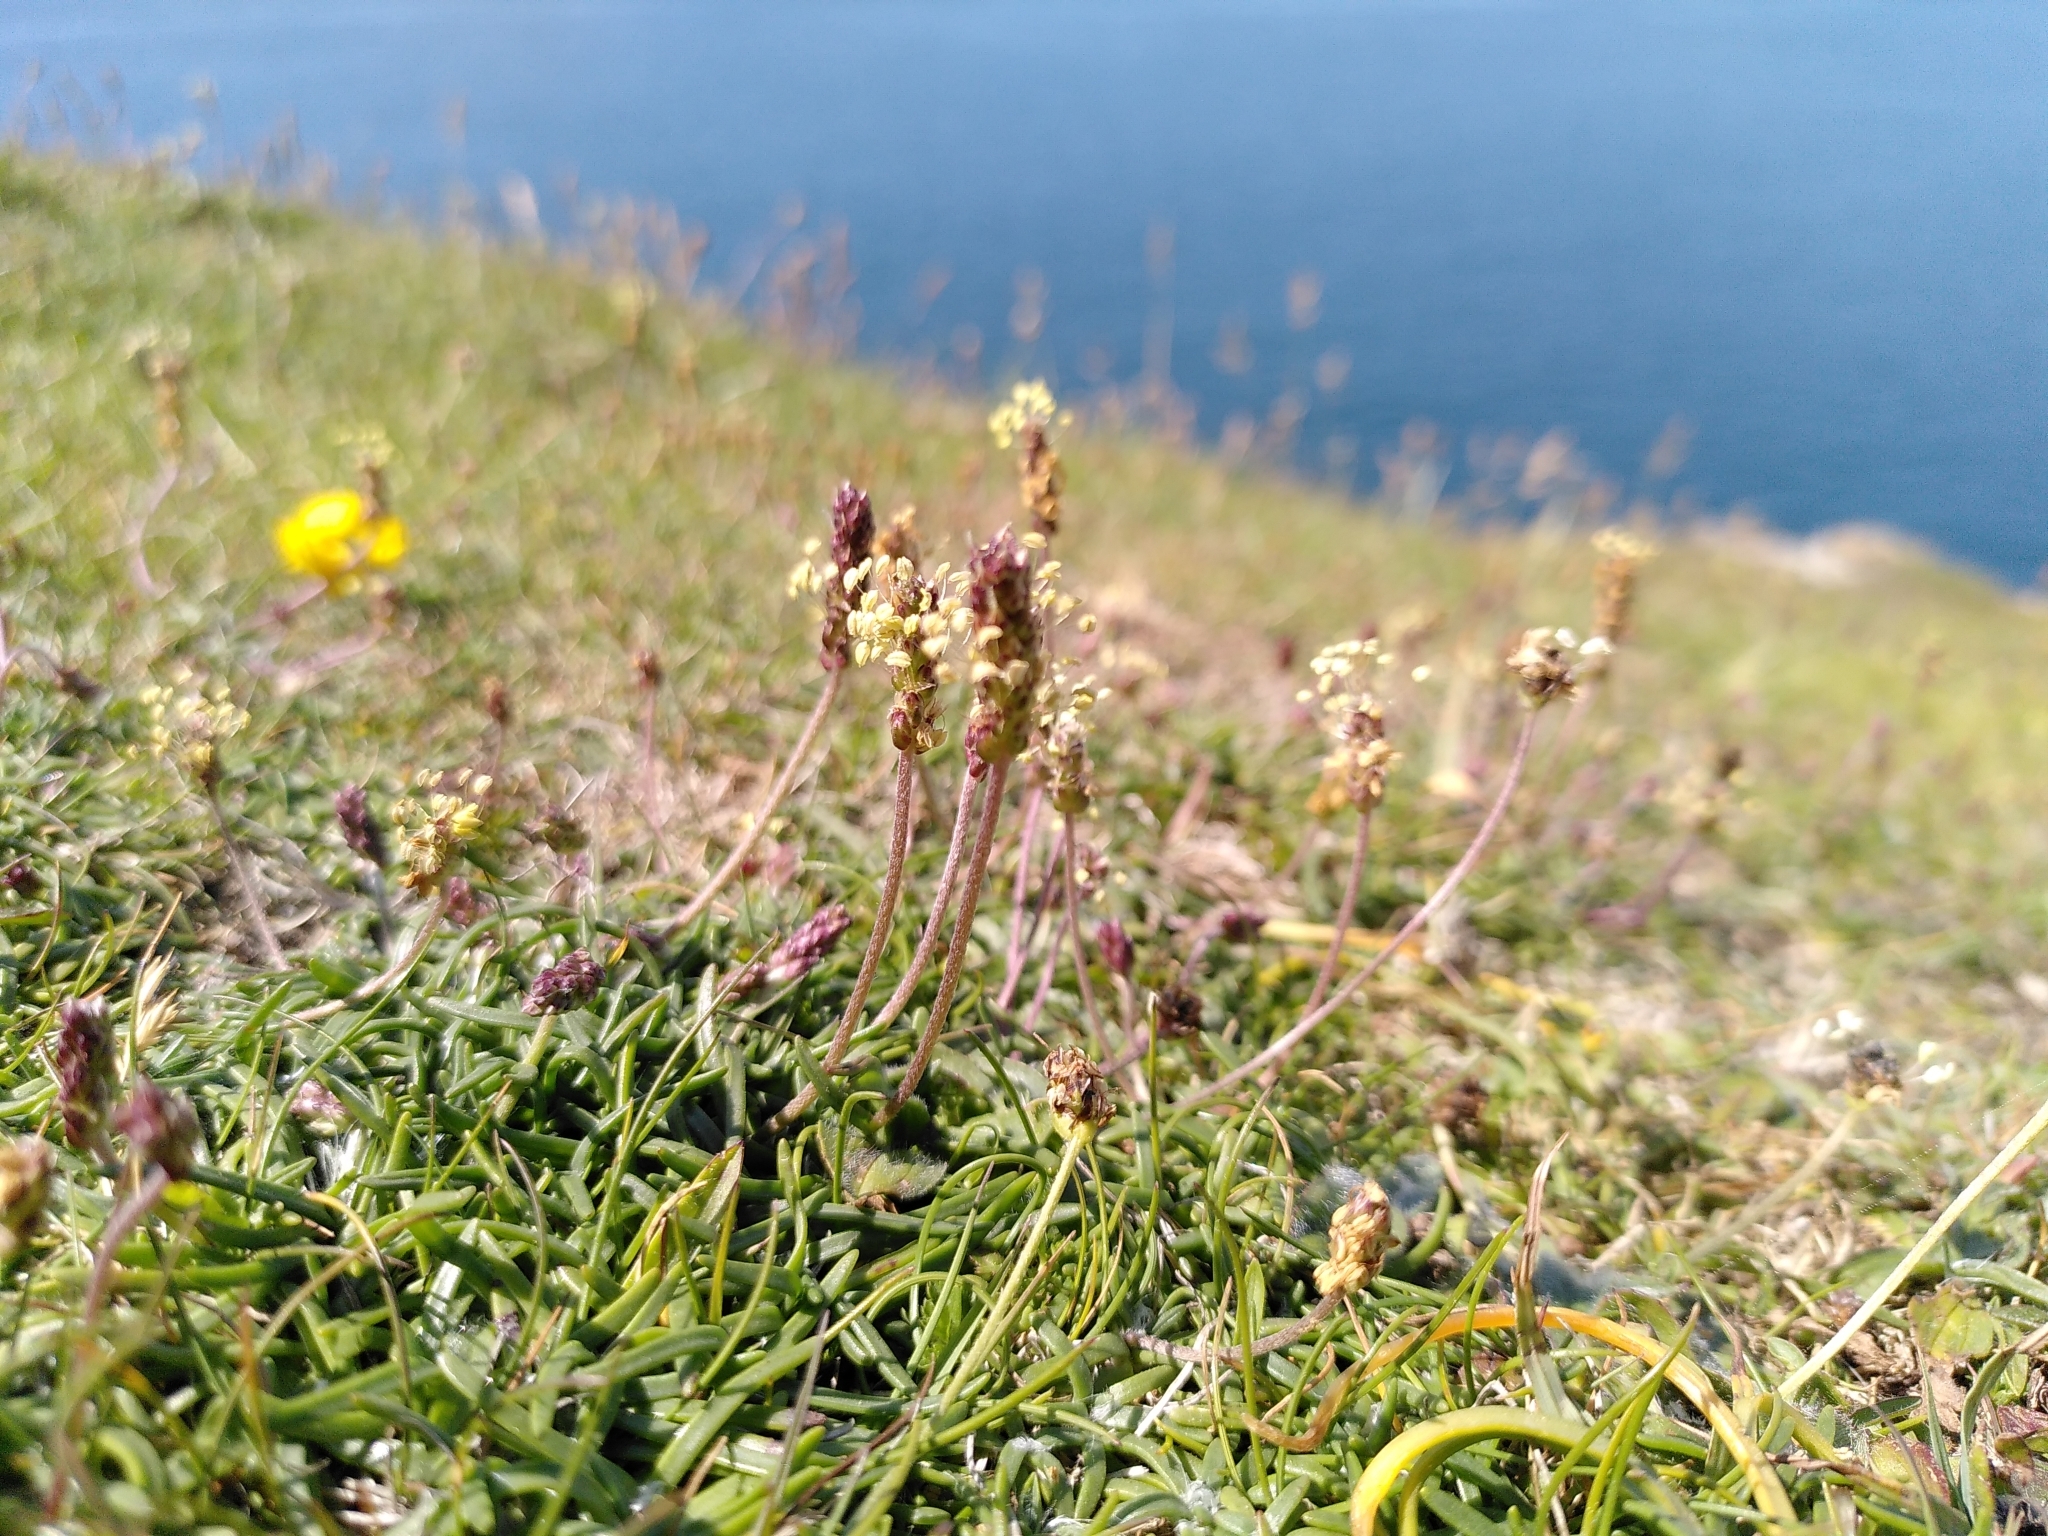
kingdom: Plantae
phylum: Tracheophyta
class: Magnoliopsida
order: Lamiales
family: Plantaginaceae
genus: Plantago
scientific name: Plantago maritima
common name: Sea plantain
